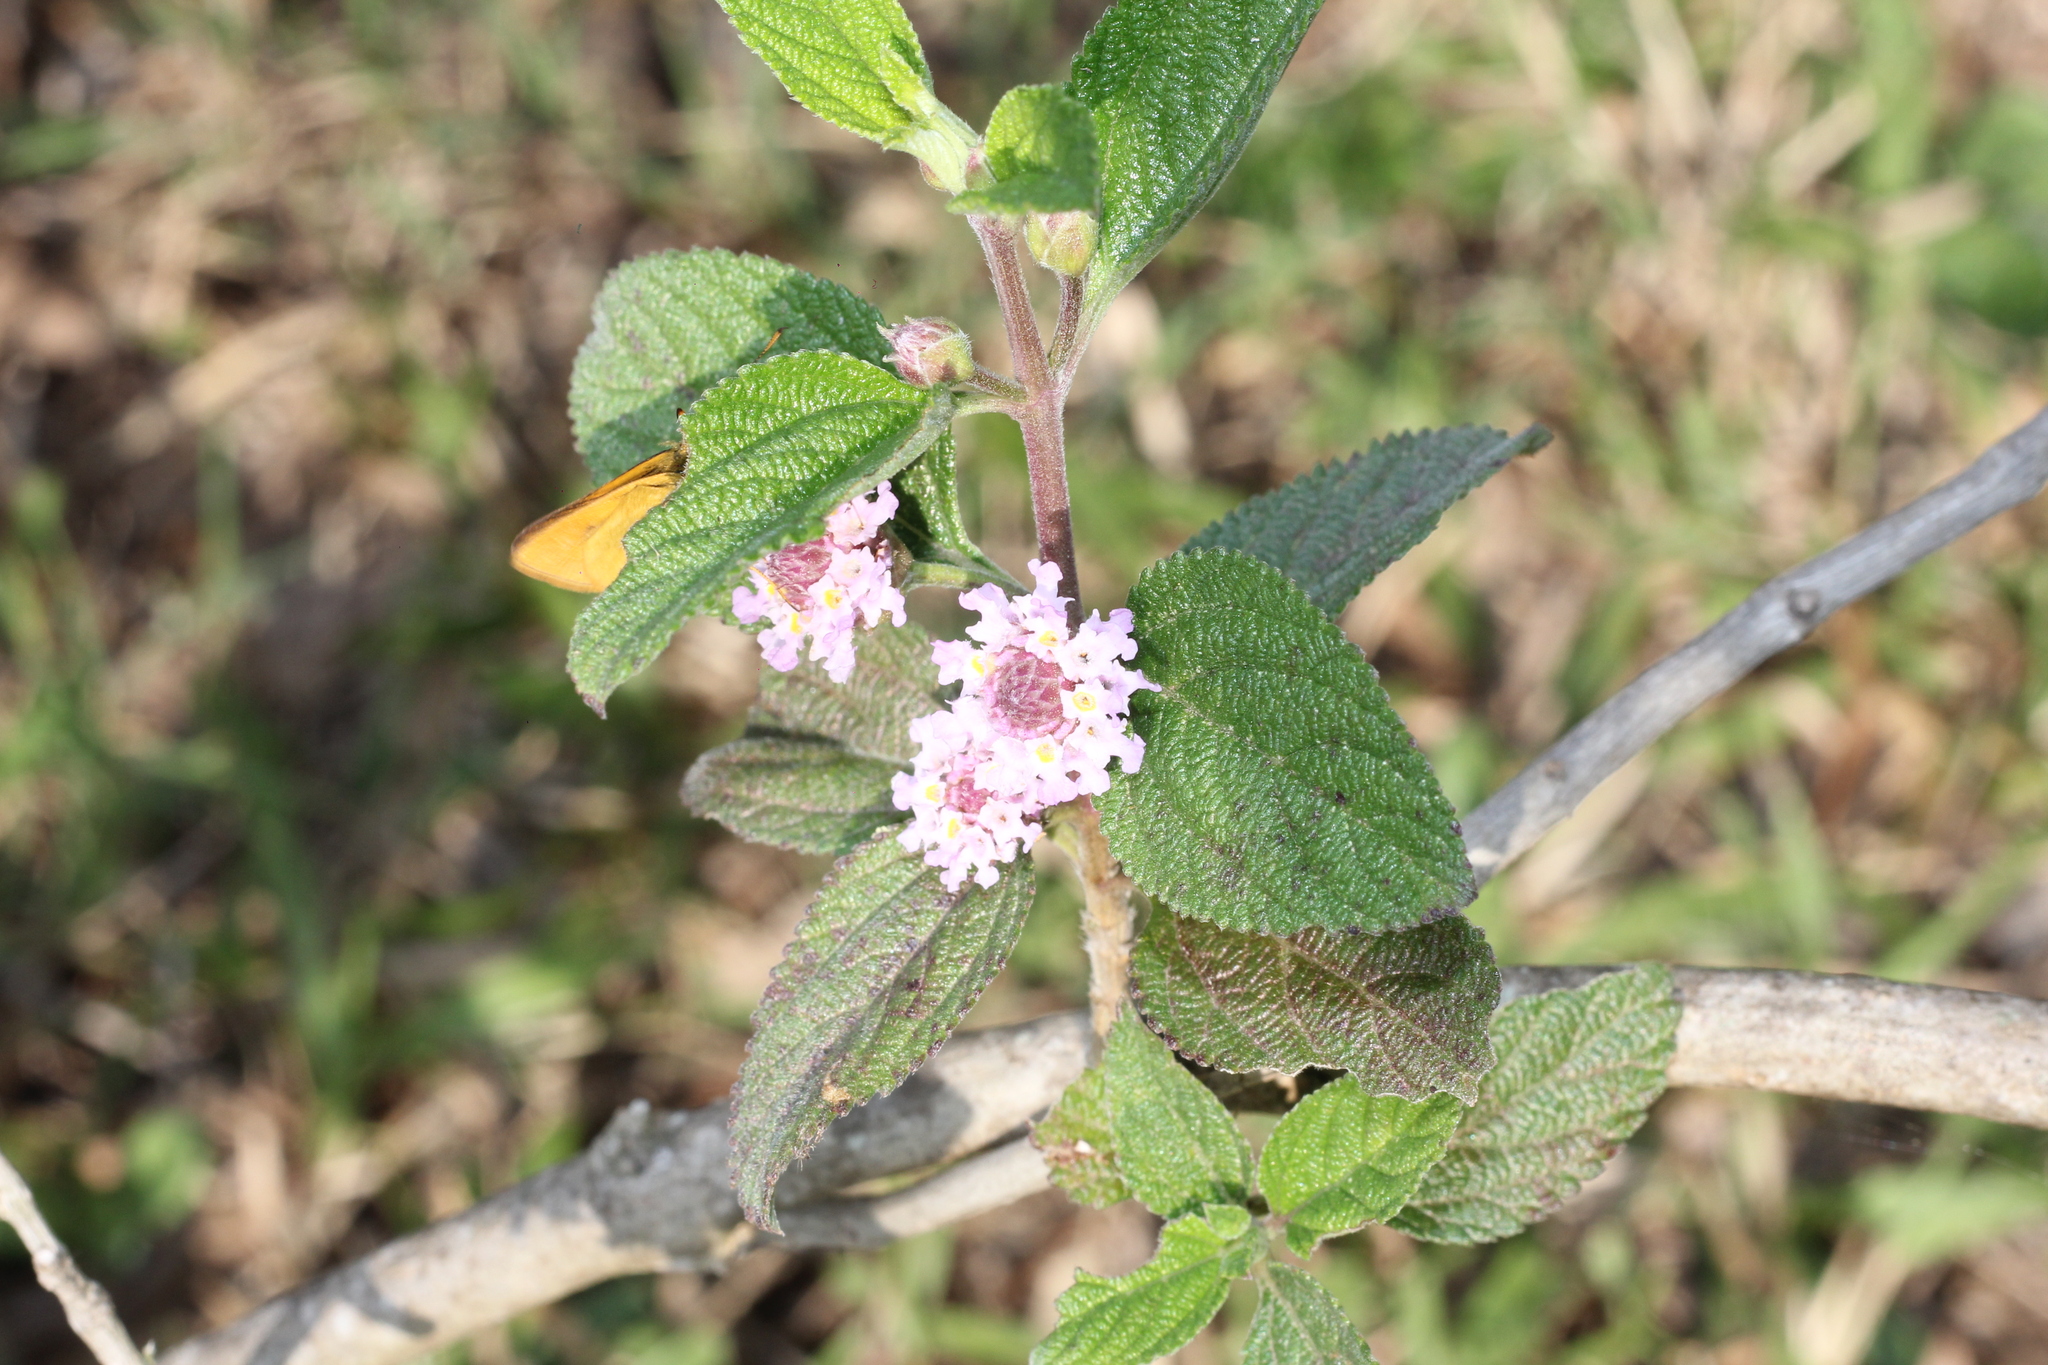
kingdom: Plantae
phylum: Tracheophyta
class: Magnoliopsida
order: Lamiales
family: Verbenaceae
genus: Lippia
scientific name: Lippia alba
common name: Bushy matgrass
